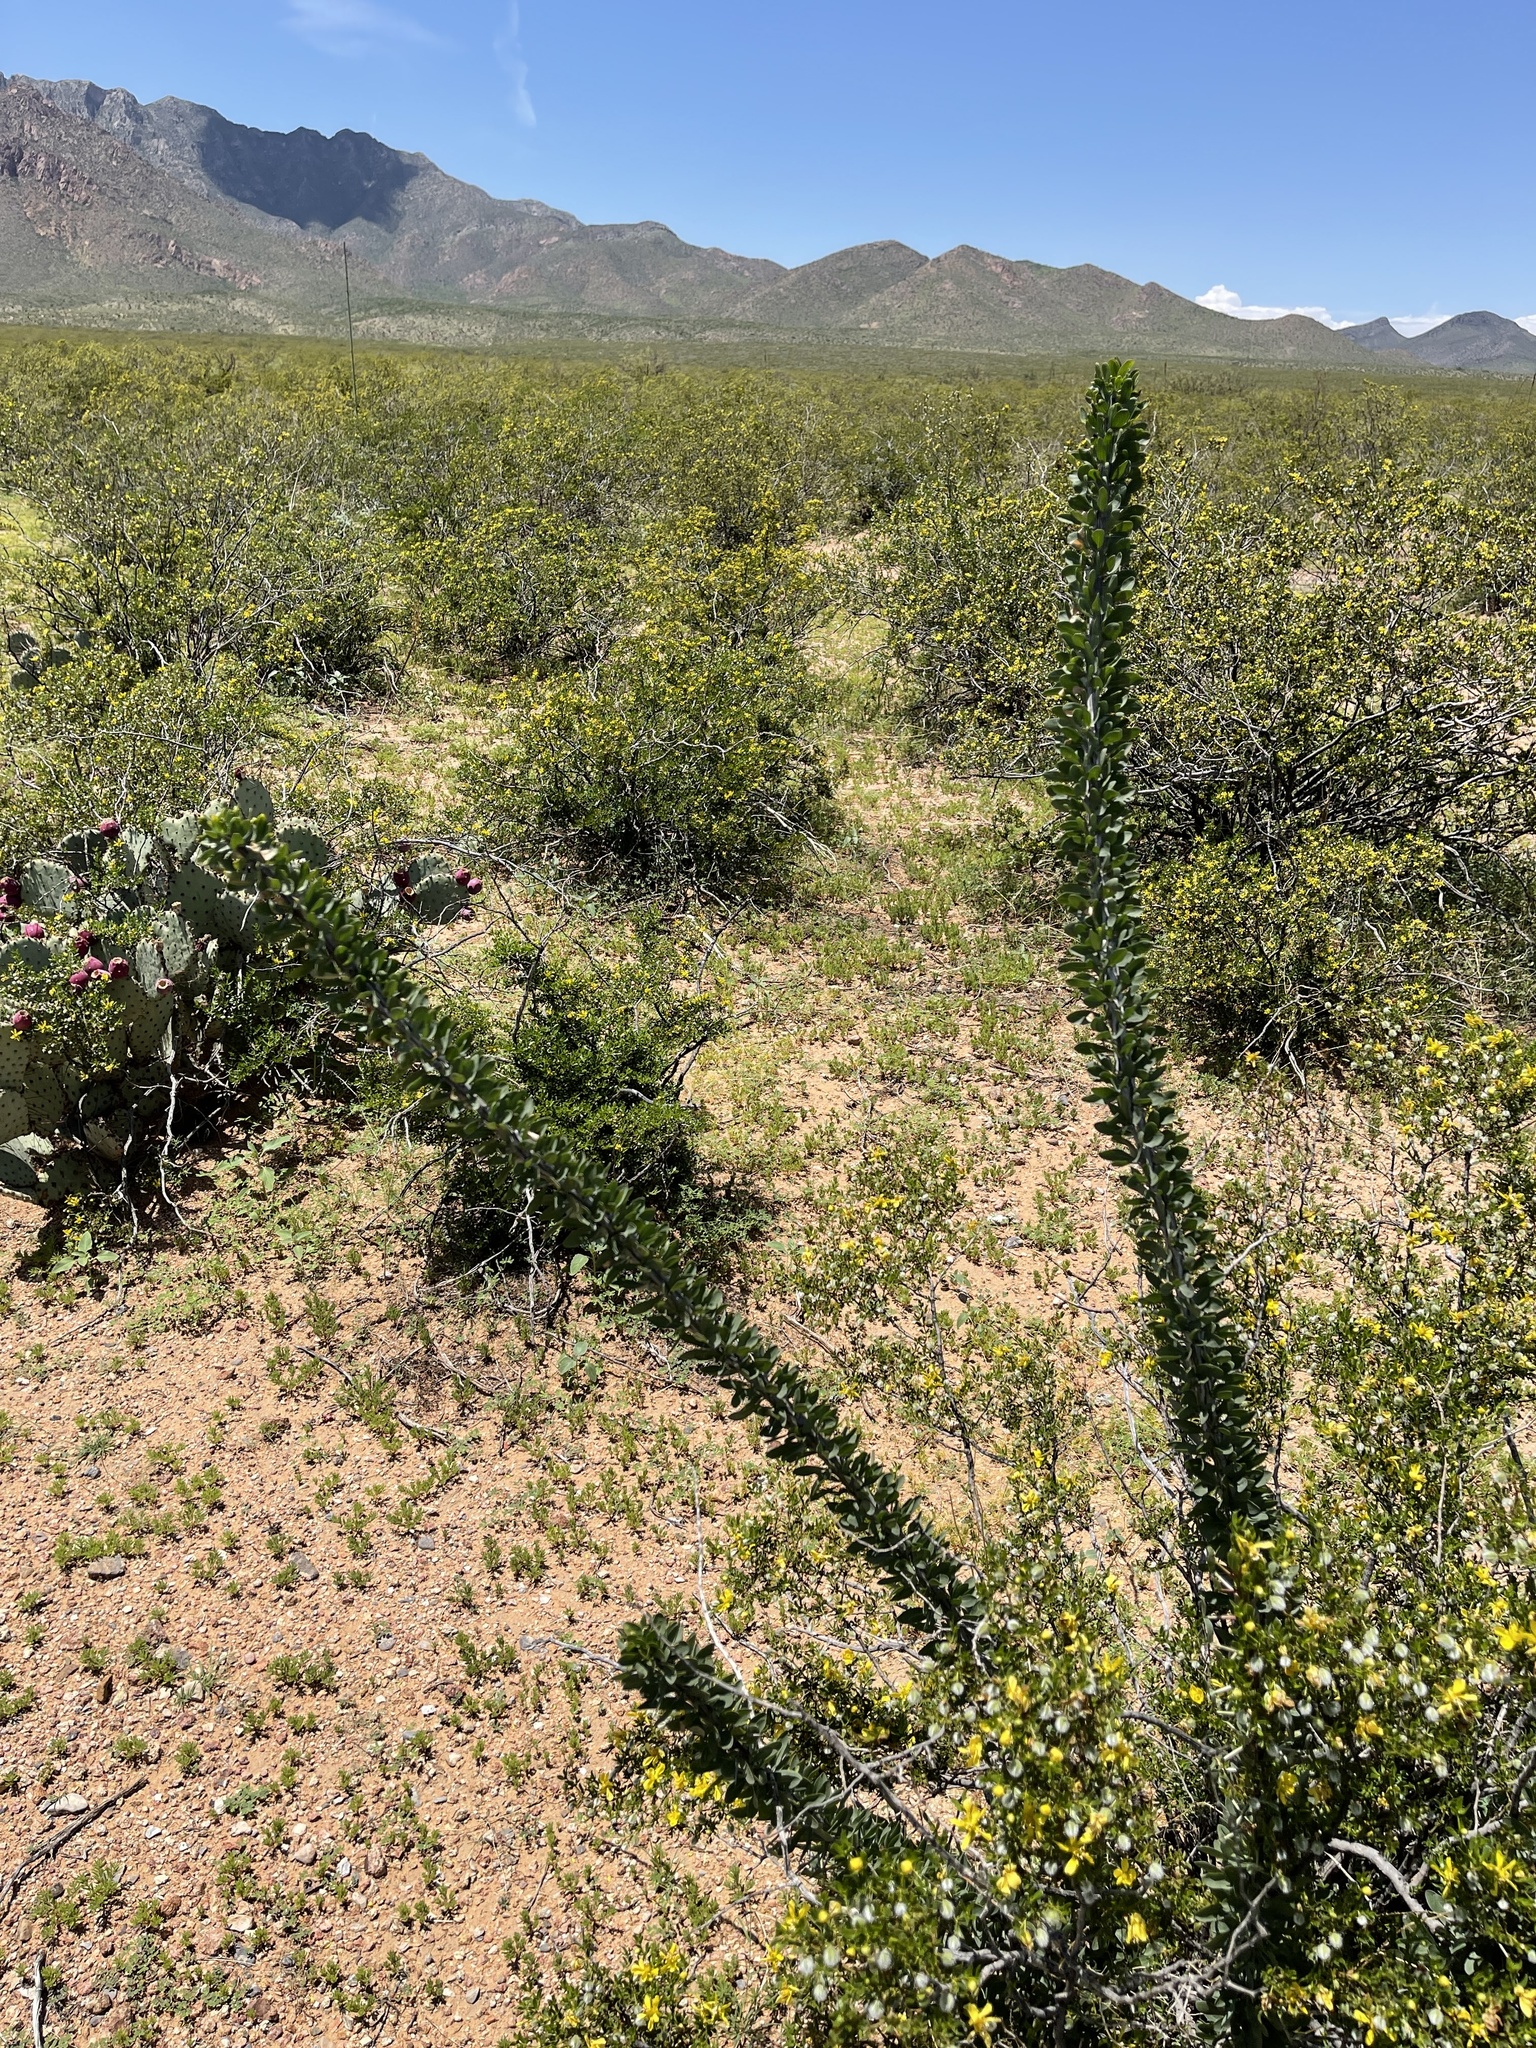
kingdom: Plantae
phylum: Tracheophyta
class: Magnoliopsida
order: Ericales
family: Fouquieriaceae
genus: Fouquieria
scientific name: Fouquieria splendens
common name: Vine-cactus
